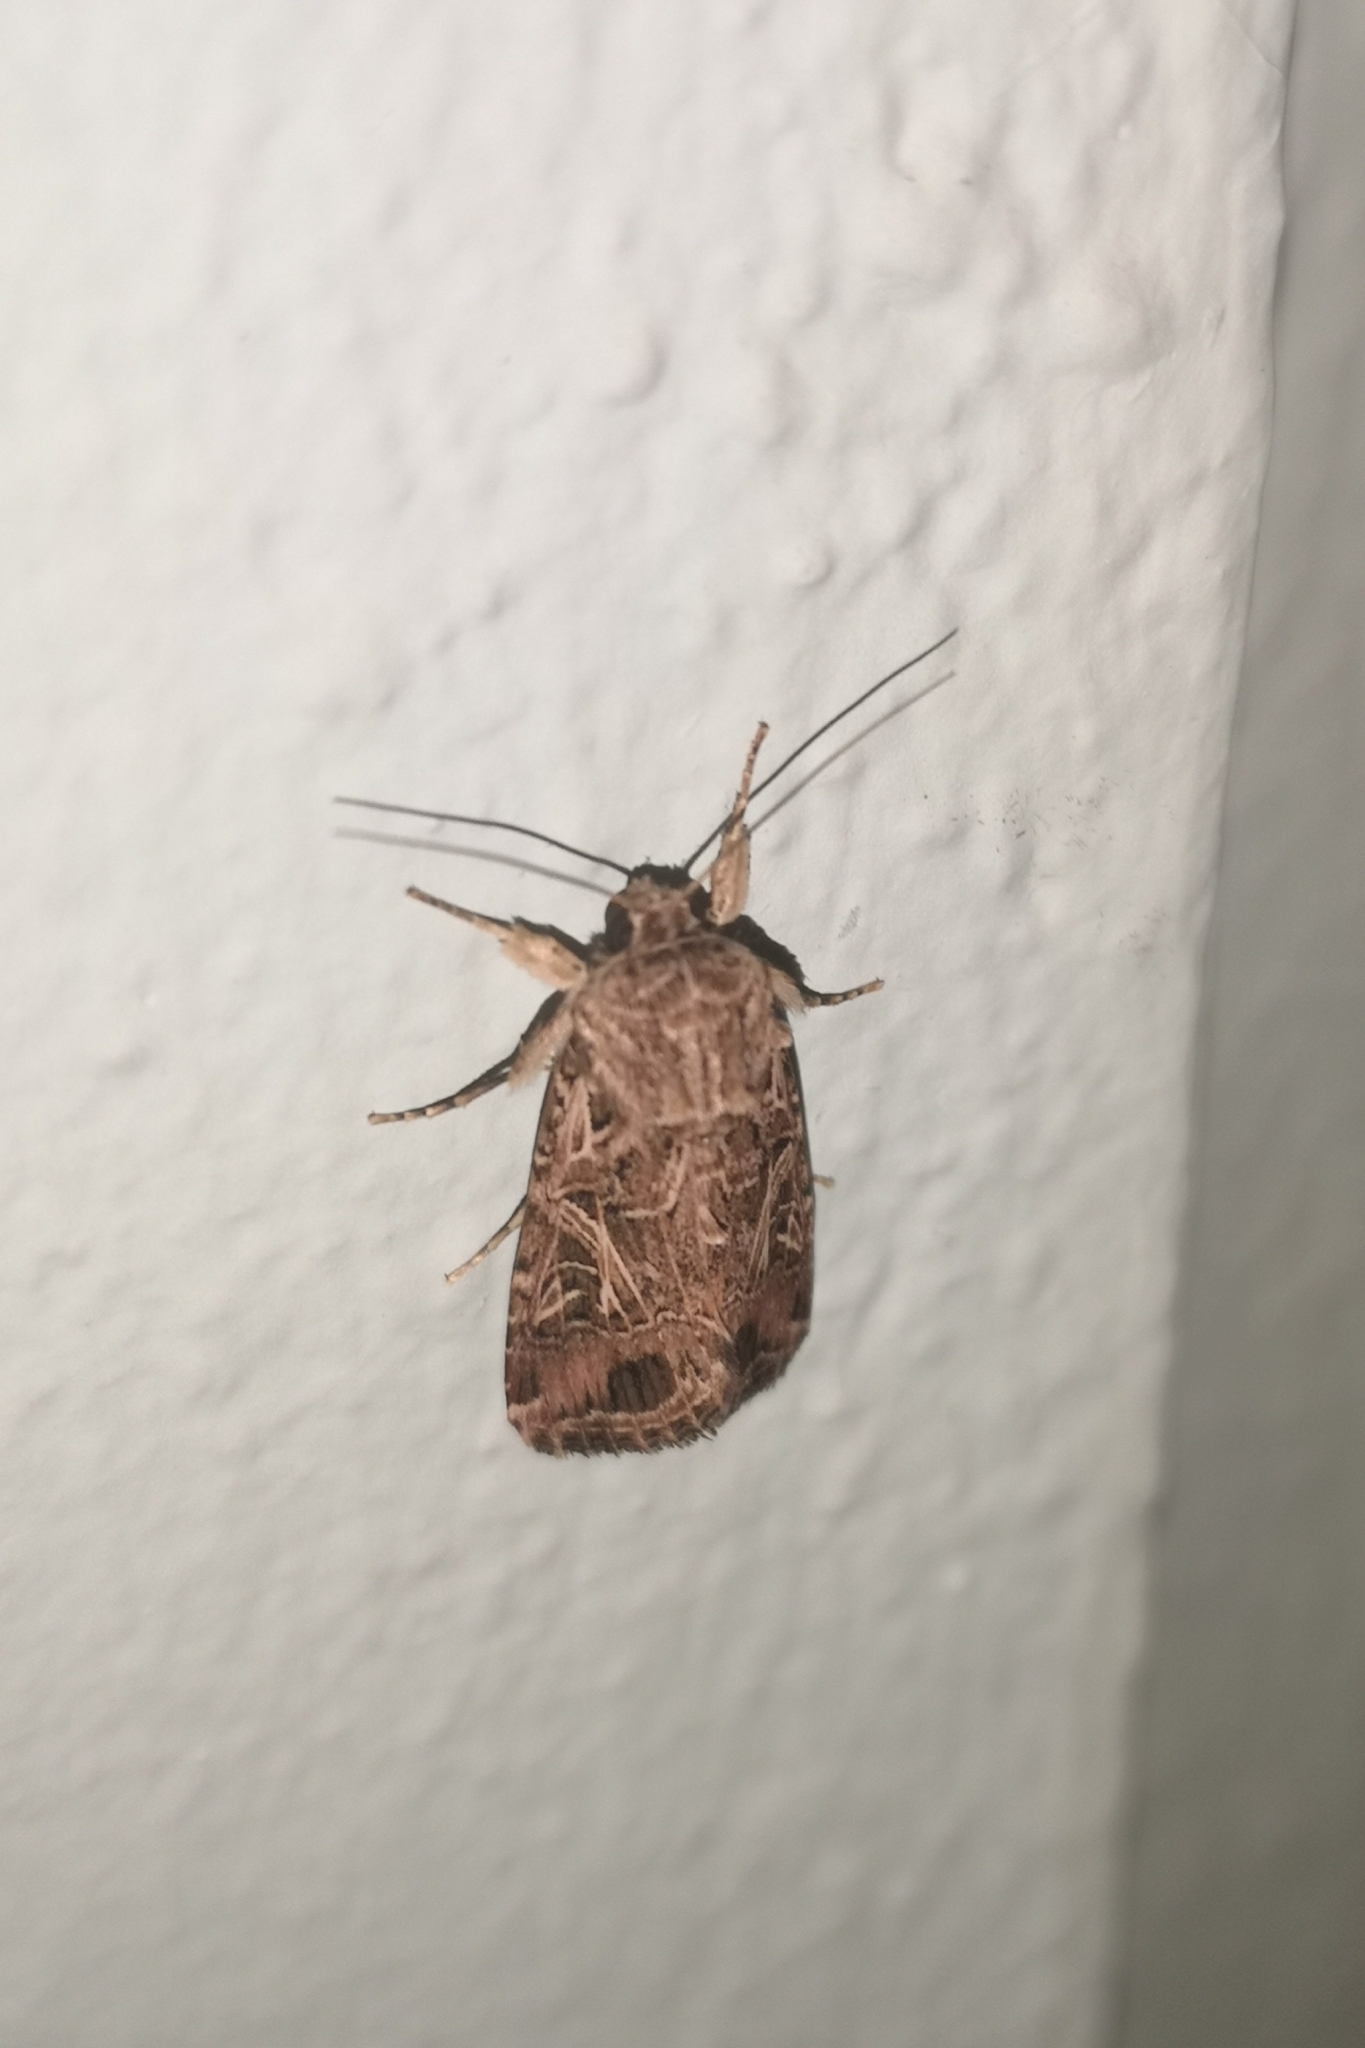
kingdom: Animalia
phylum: Arthropoda
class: Insecta
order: Lepidoptera
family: Noctuidae
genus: Spodoptera
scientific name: Spodoptera littoralis
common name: Egyptian cotton leafworm
